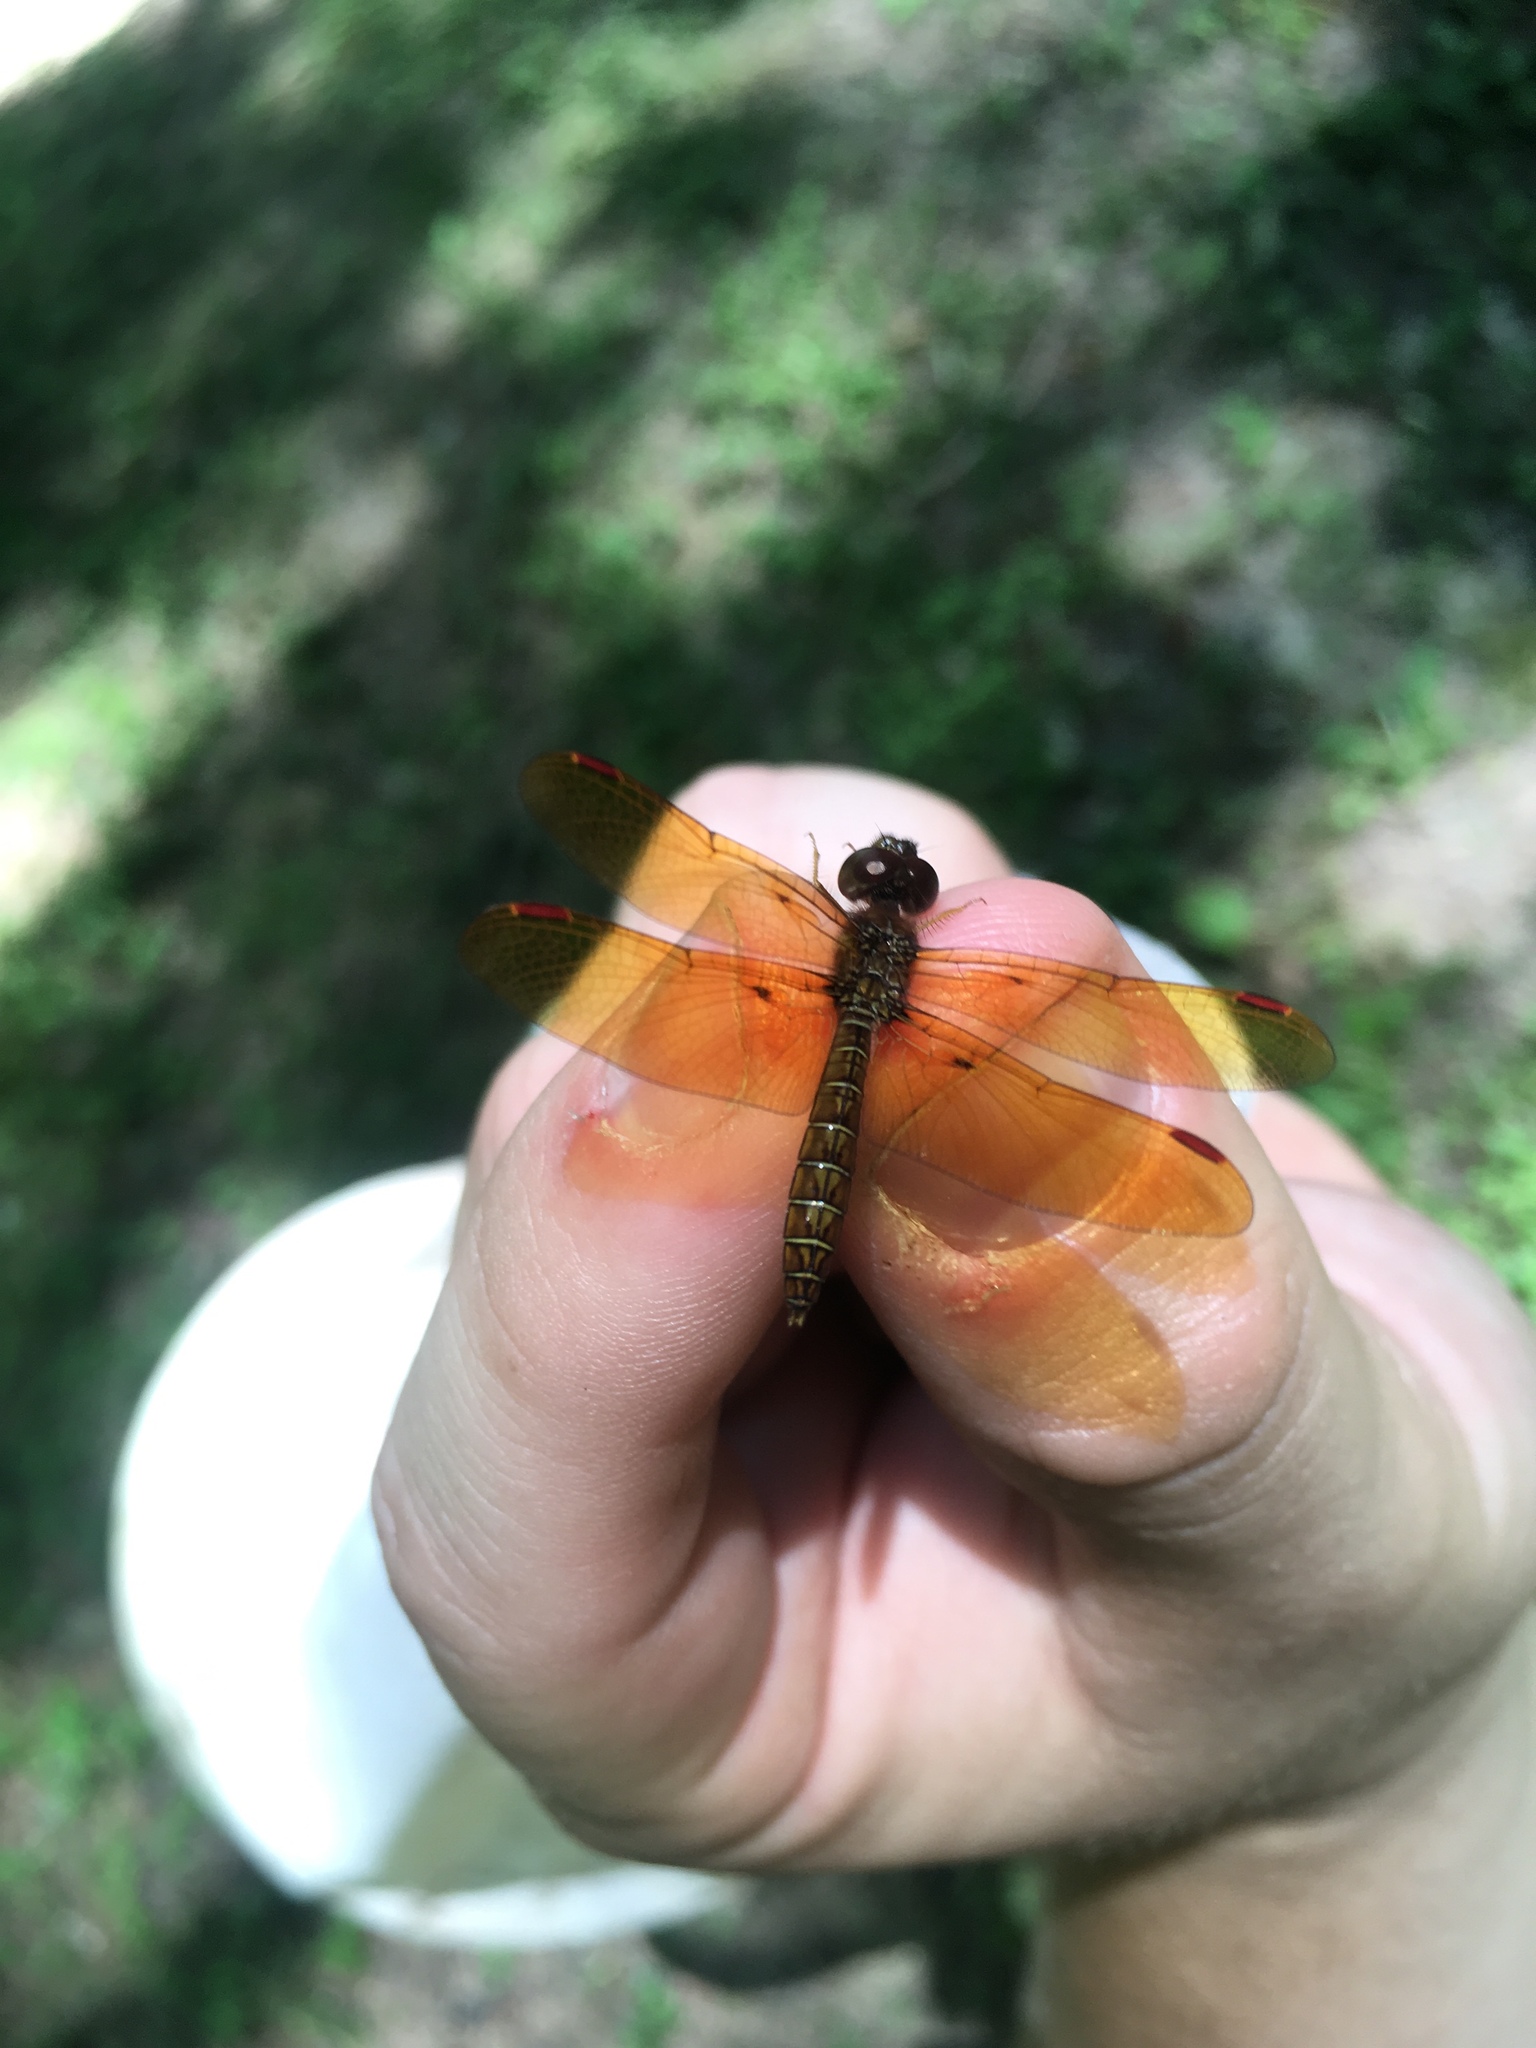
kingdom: Animalia
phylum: Arthropoda
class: Insecta
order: Odonata
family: Libellulidae
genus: Perithemis
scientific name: Perithemis tenera
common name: Eastern amberwing
